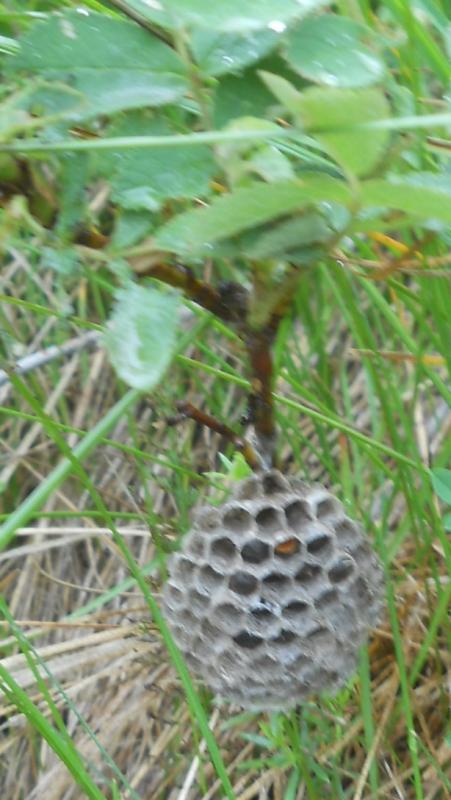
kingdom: Animalia
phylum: Arthropoda
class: Insecta
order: Hymenoptera
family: Eumenidae
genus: Polistes
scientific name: Polistes biglumis
